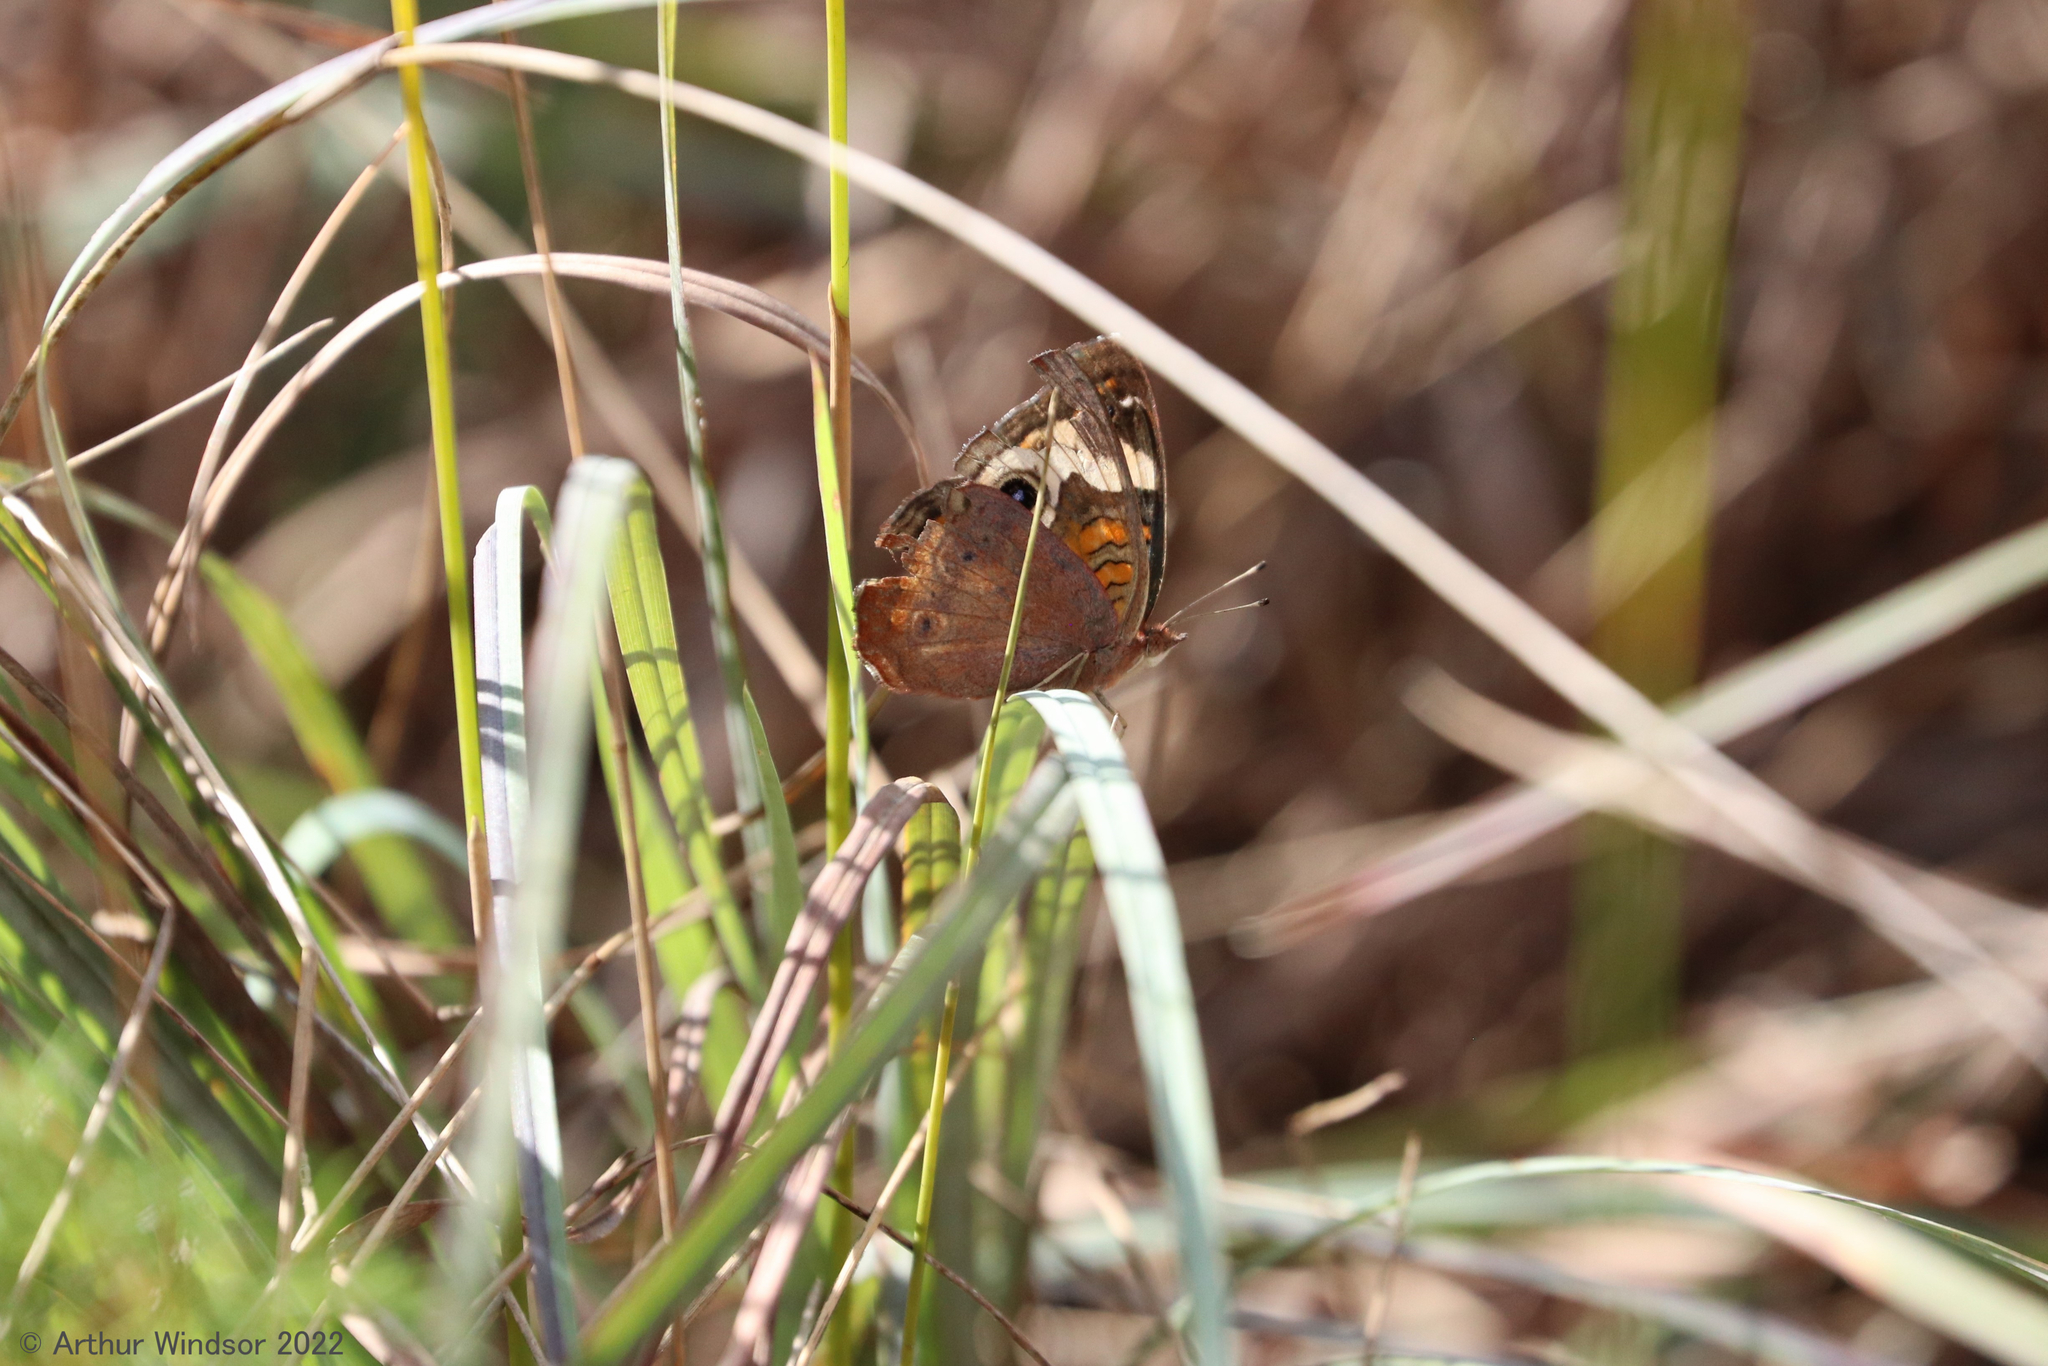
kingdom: Animalia
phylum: Arthropoda
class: Insecta
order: Lepidoptera
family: Nymphalidae
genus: Junonia
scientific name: Junonia coenia
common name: Common buckeye
